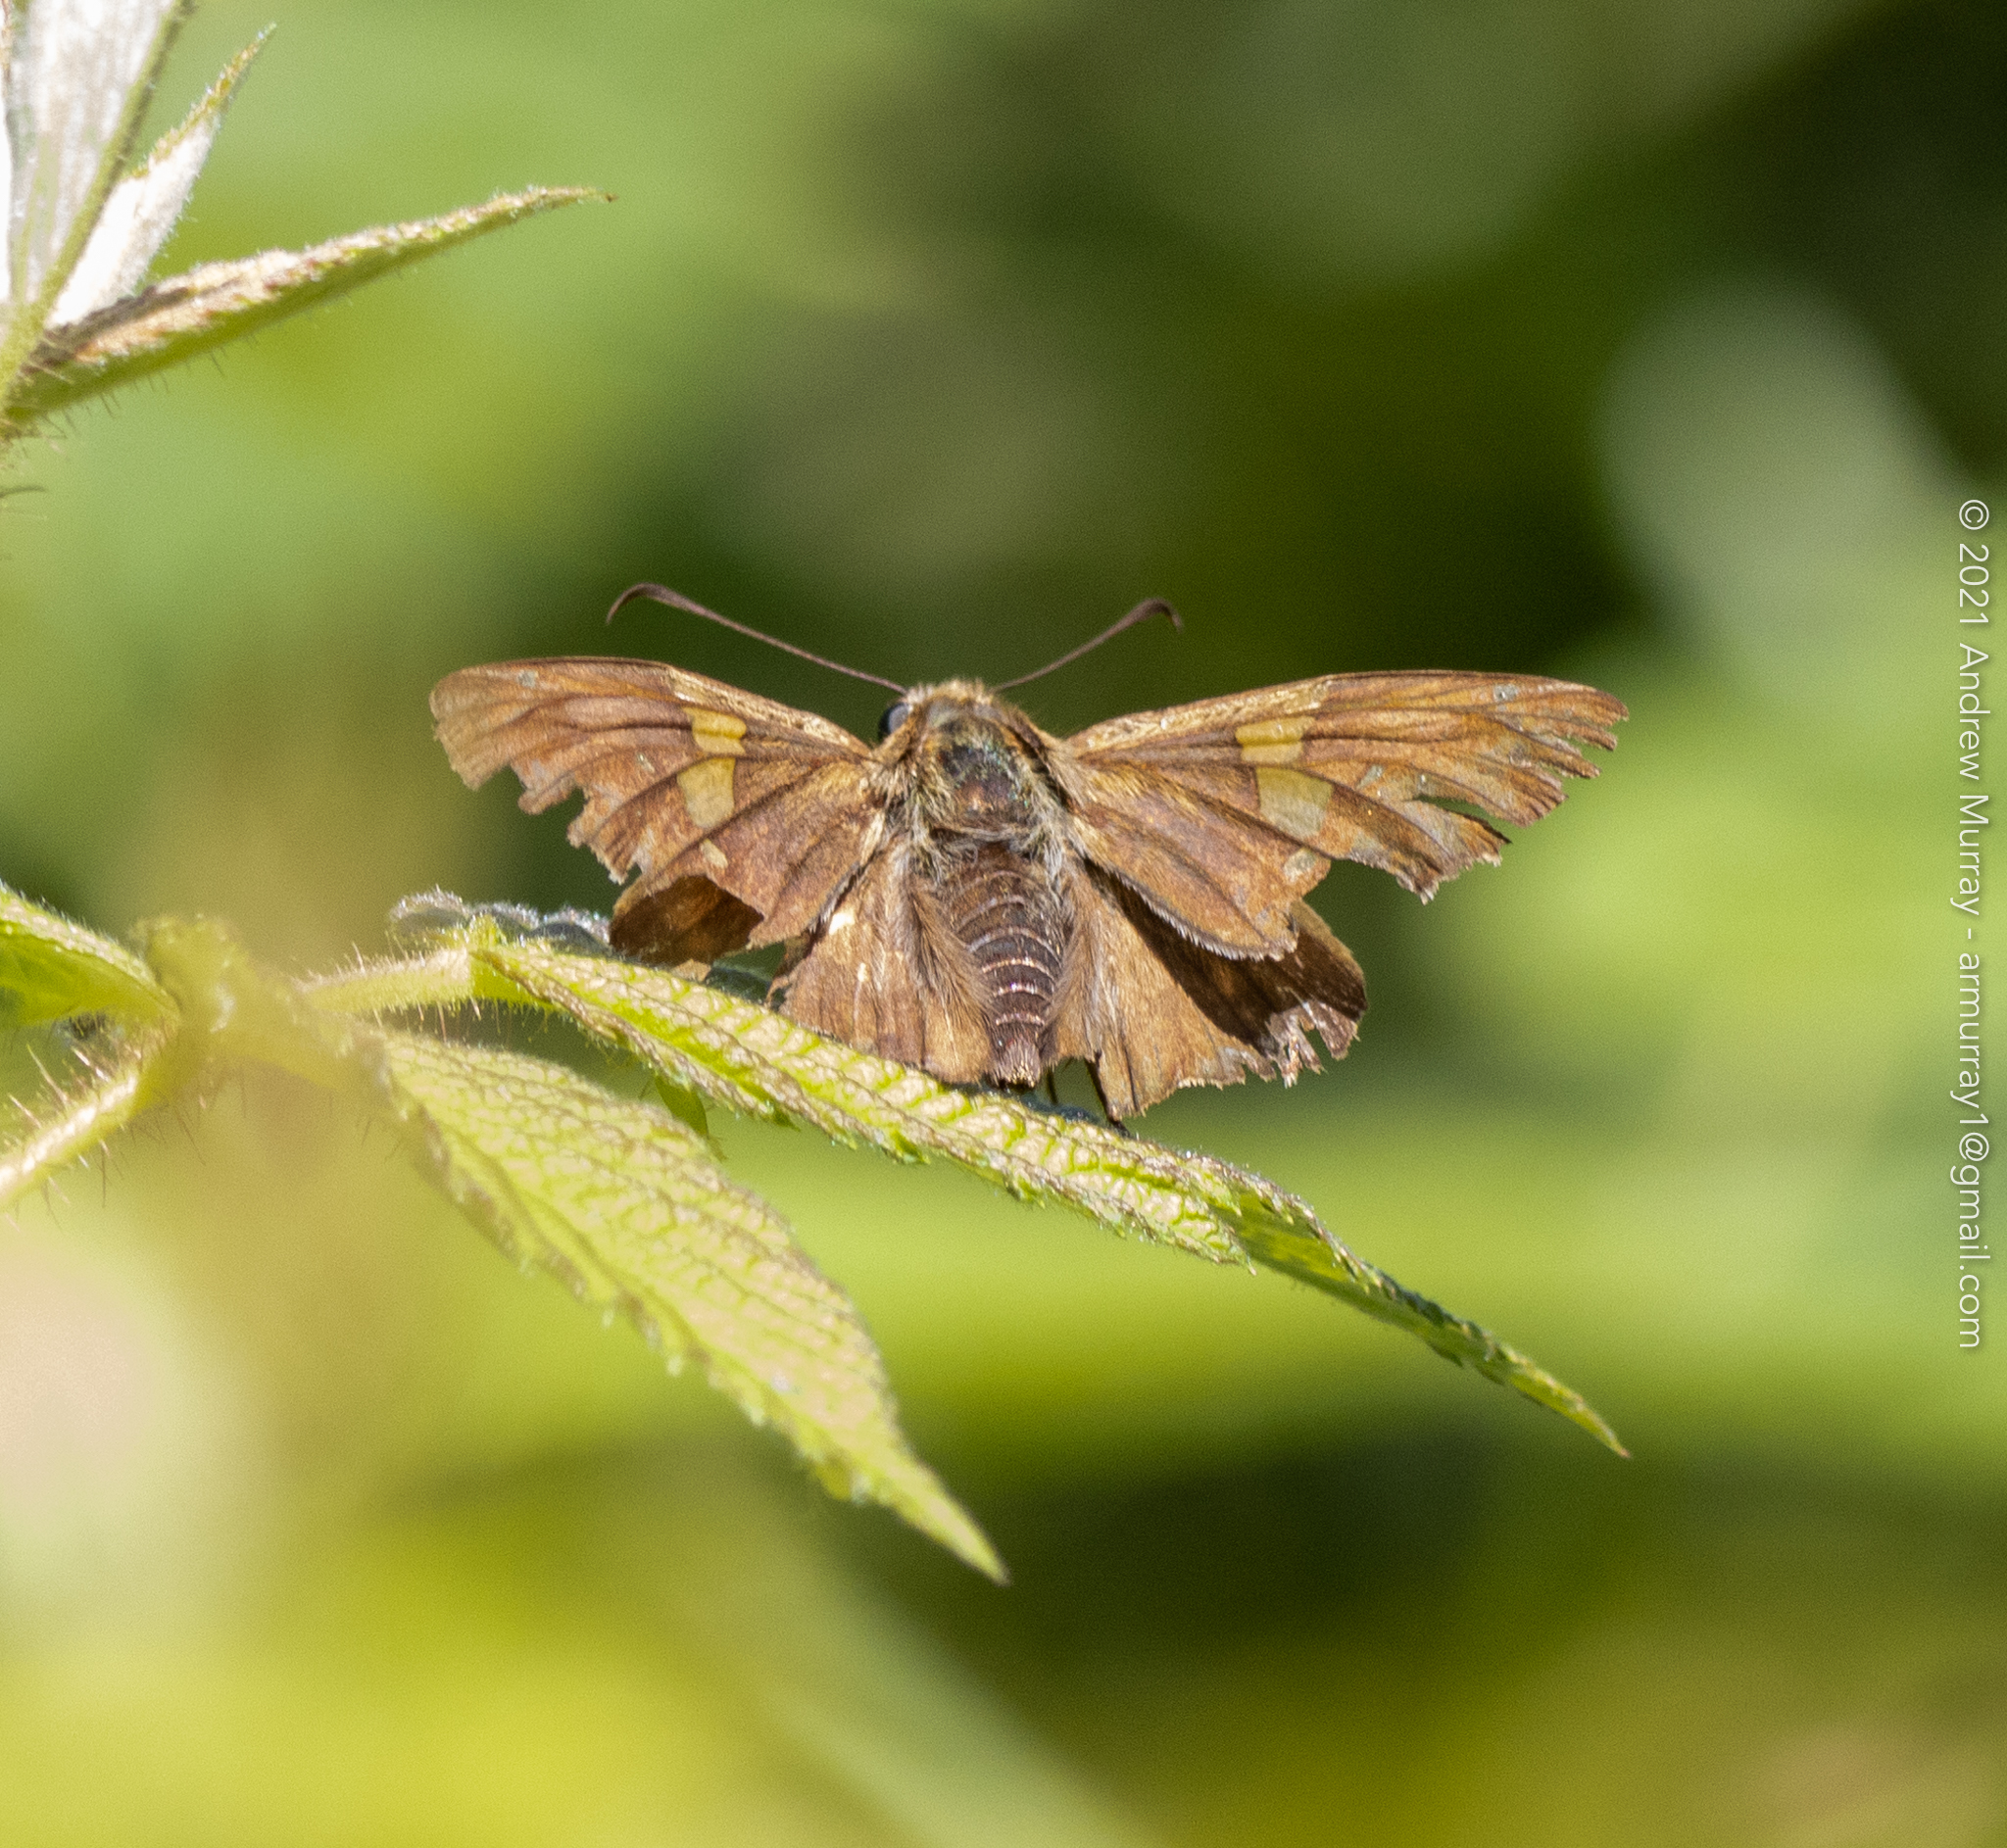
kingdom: Animalia
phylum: Arthropoda
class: Insecta
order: Lepidoptera
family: Hesperiidae
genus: Epargyreus
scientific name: Epargyreus clarus
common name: Silver-spotted skipper
